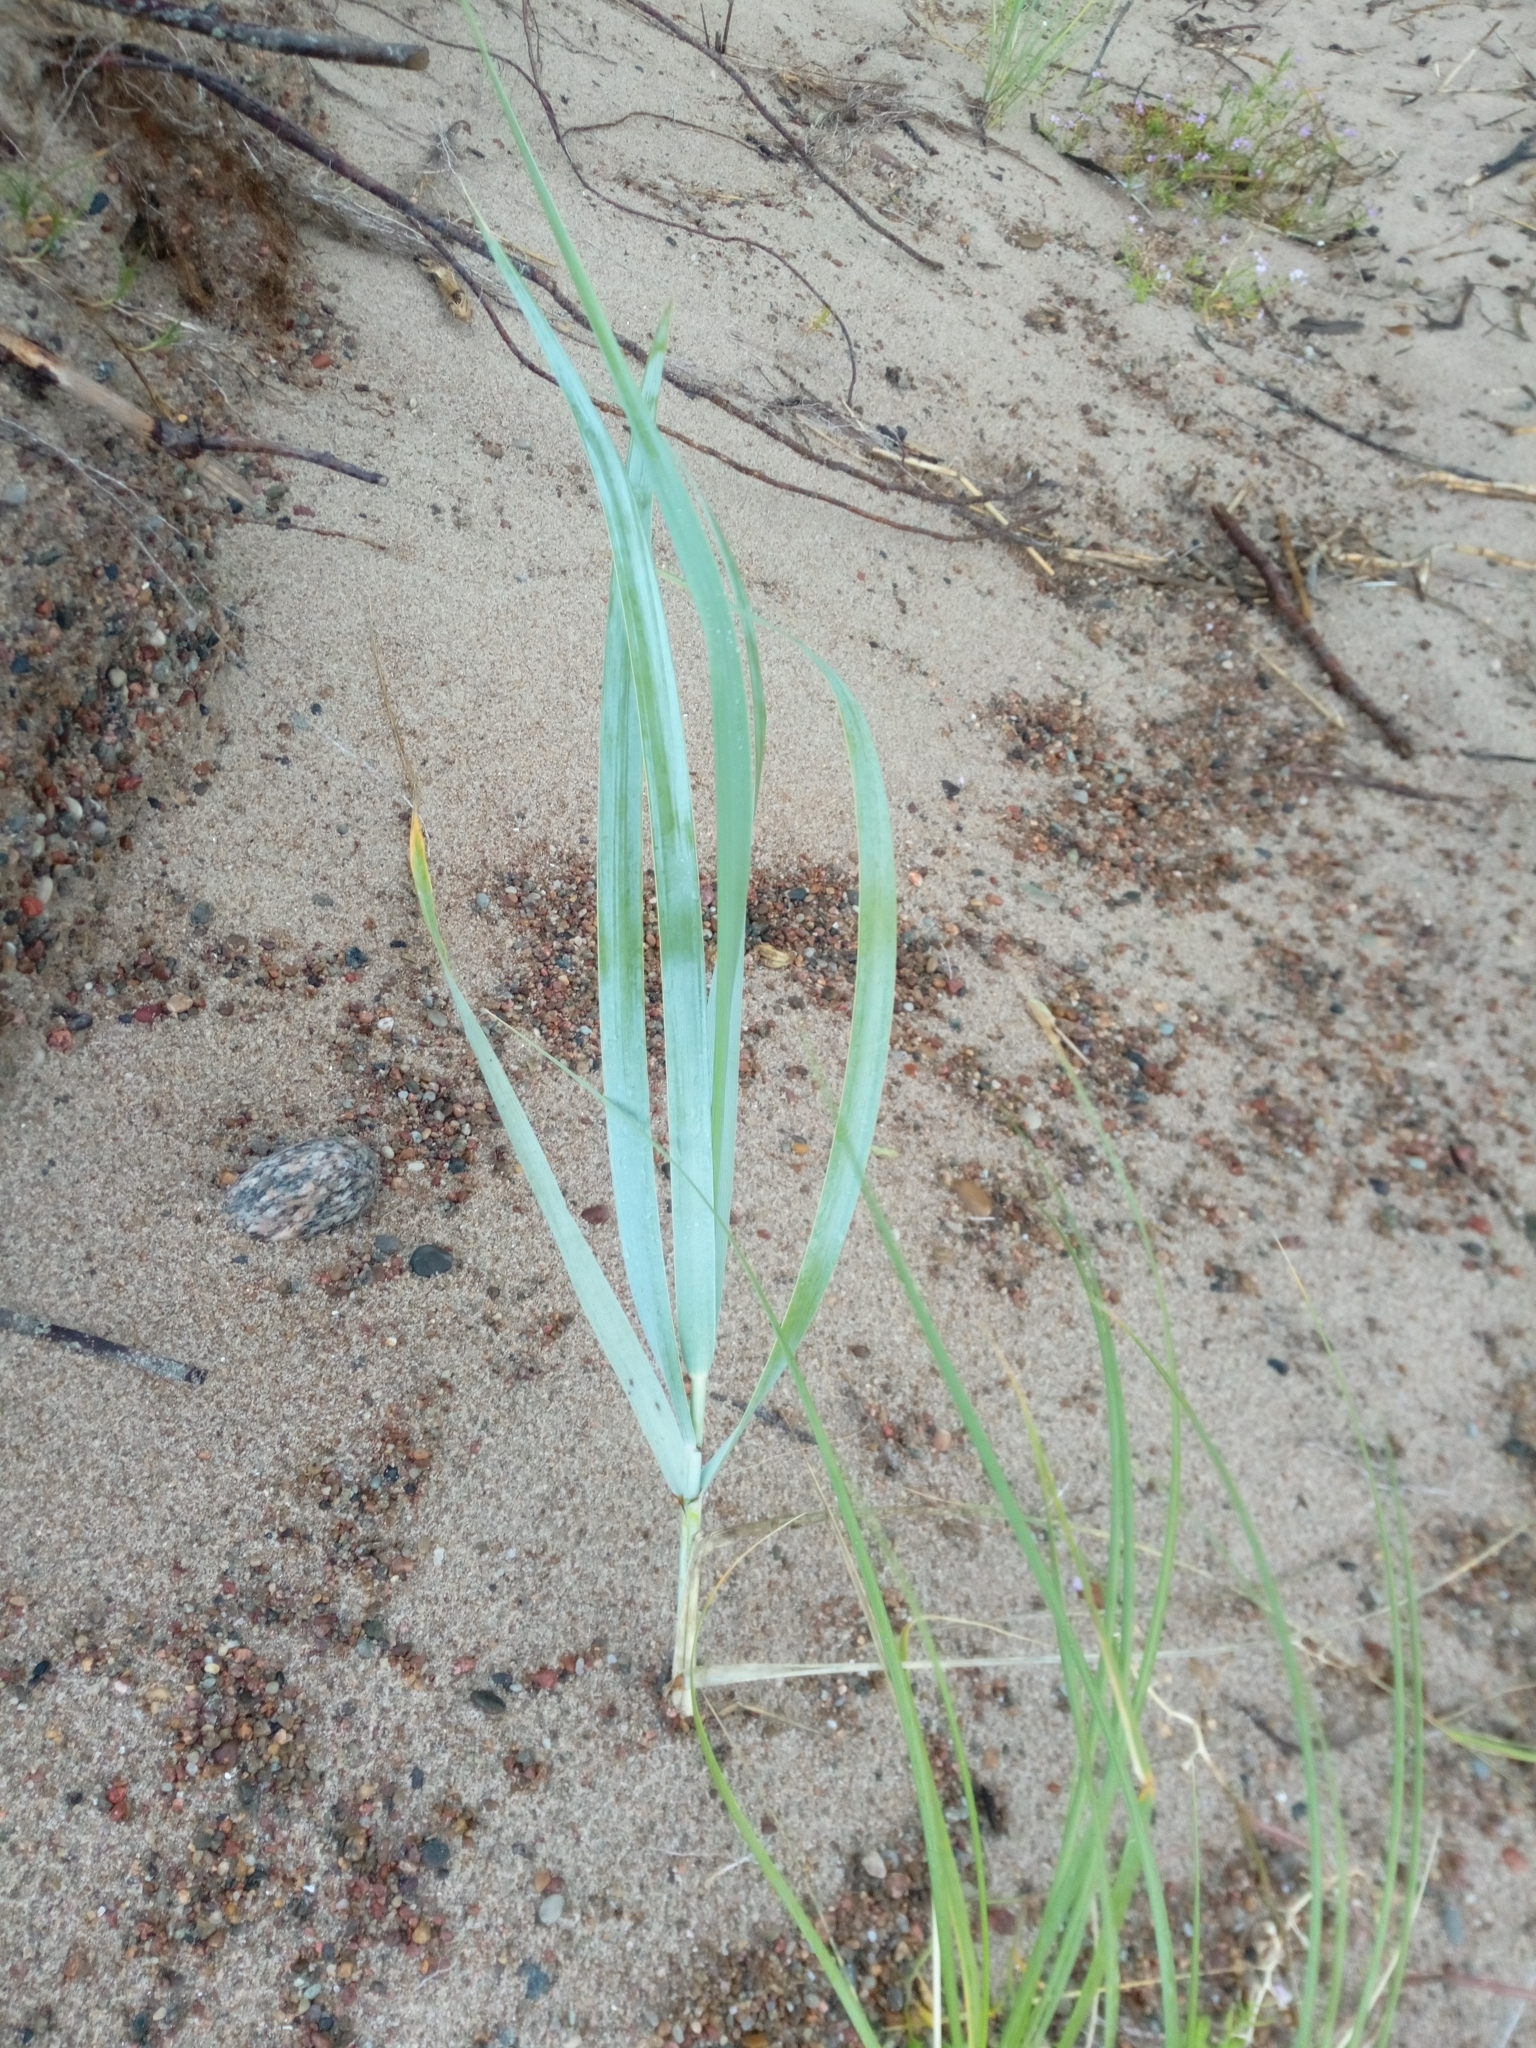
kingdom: Plantae
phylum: Tracheophyta
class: Liliopsida
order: Poales
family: Poaceae
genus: Leymus
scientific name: Leymus arenarius
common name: Lyme-grass
